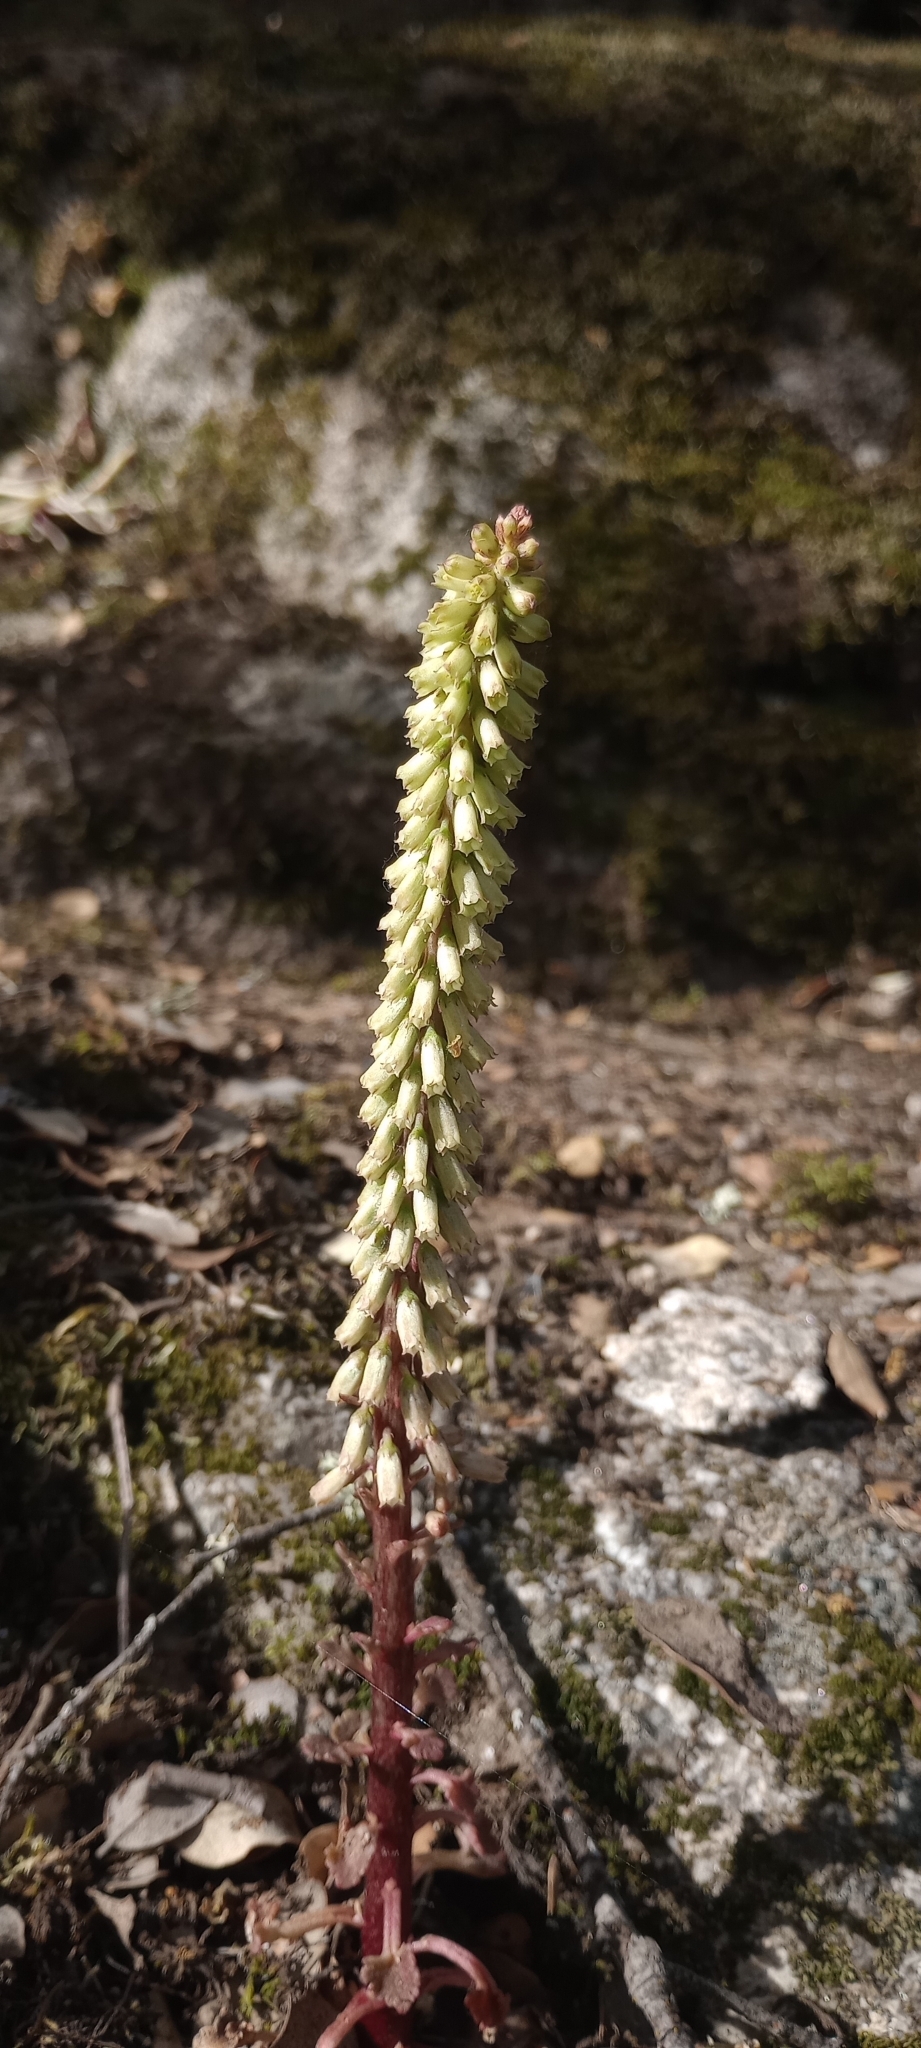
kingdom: Plantae
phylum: Tracheophyta
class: Magnoliopsida
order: Saxifragales
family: Crassulaceae
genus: Umbilicus
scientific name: Umbilicus rupestris
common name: Navelwort
